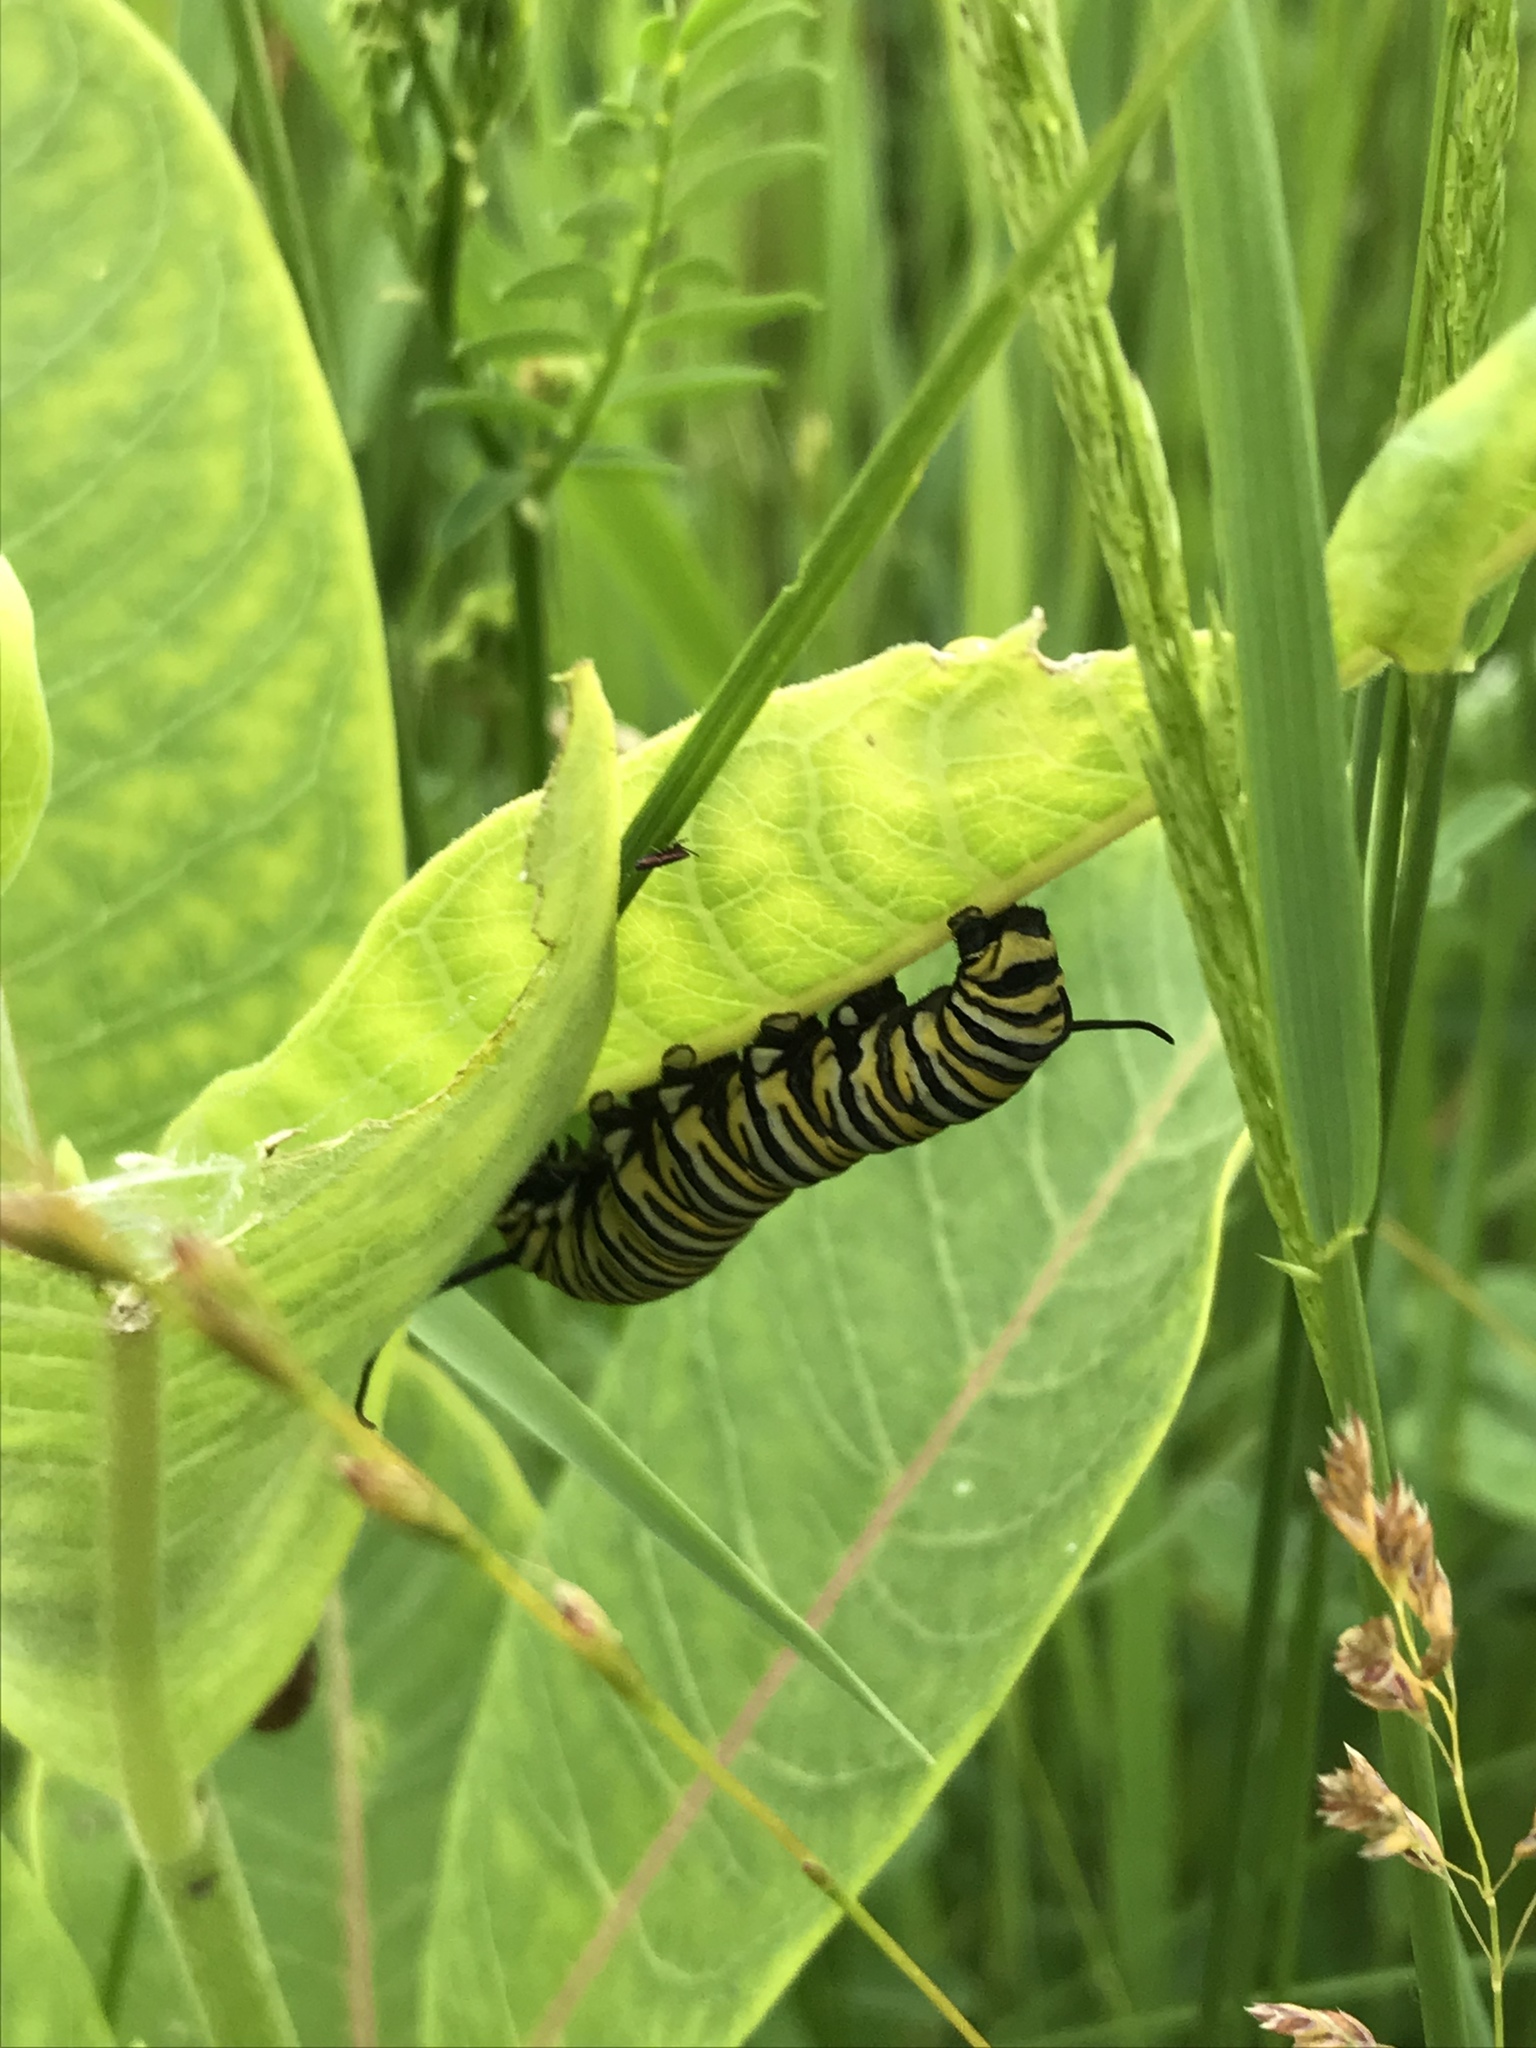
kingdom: Animalia
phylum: Arthropoda
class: Insecta
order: Lepidoptera
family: Nymphalidae
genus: Danaus
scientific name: Danaus plexippus
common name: Monarch
